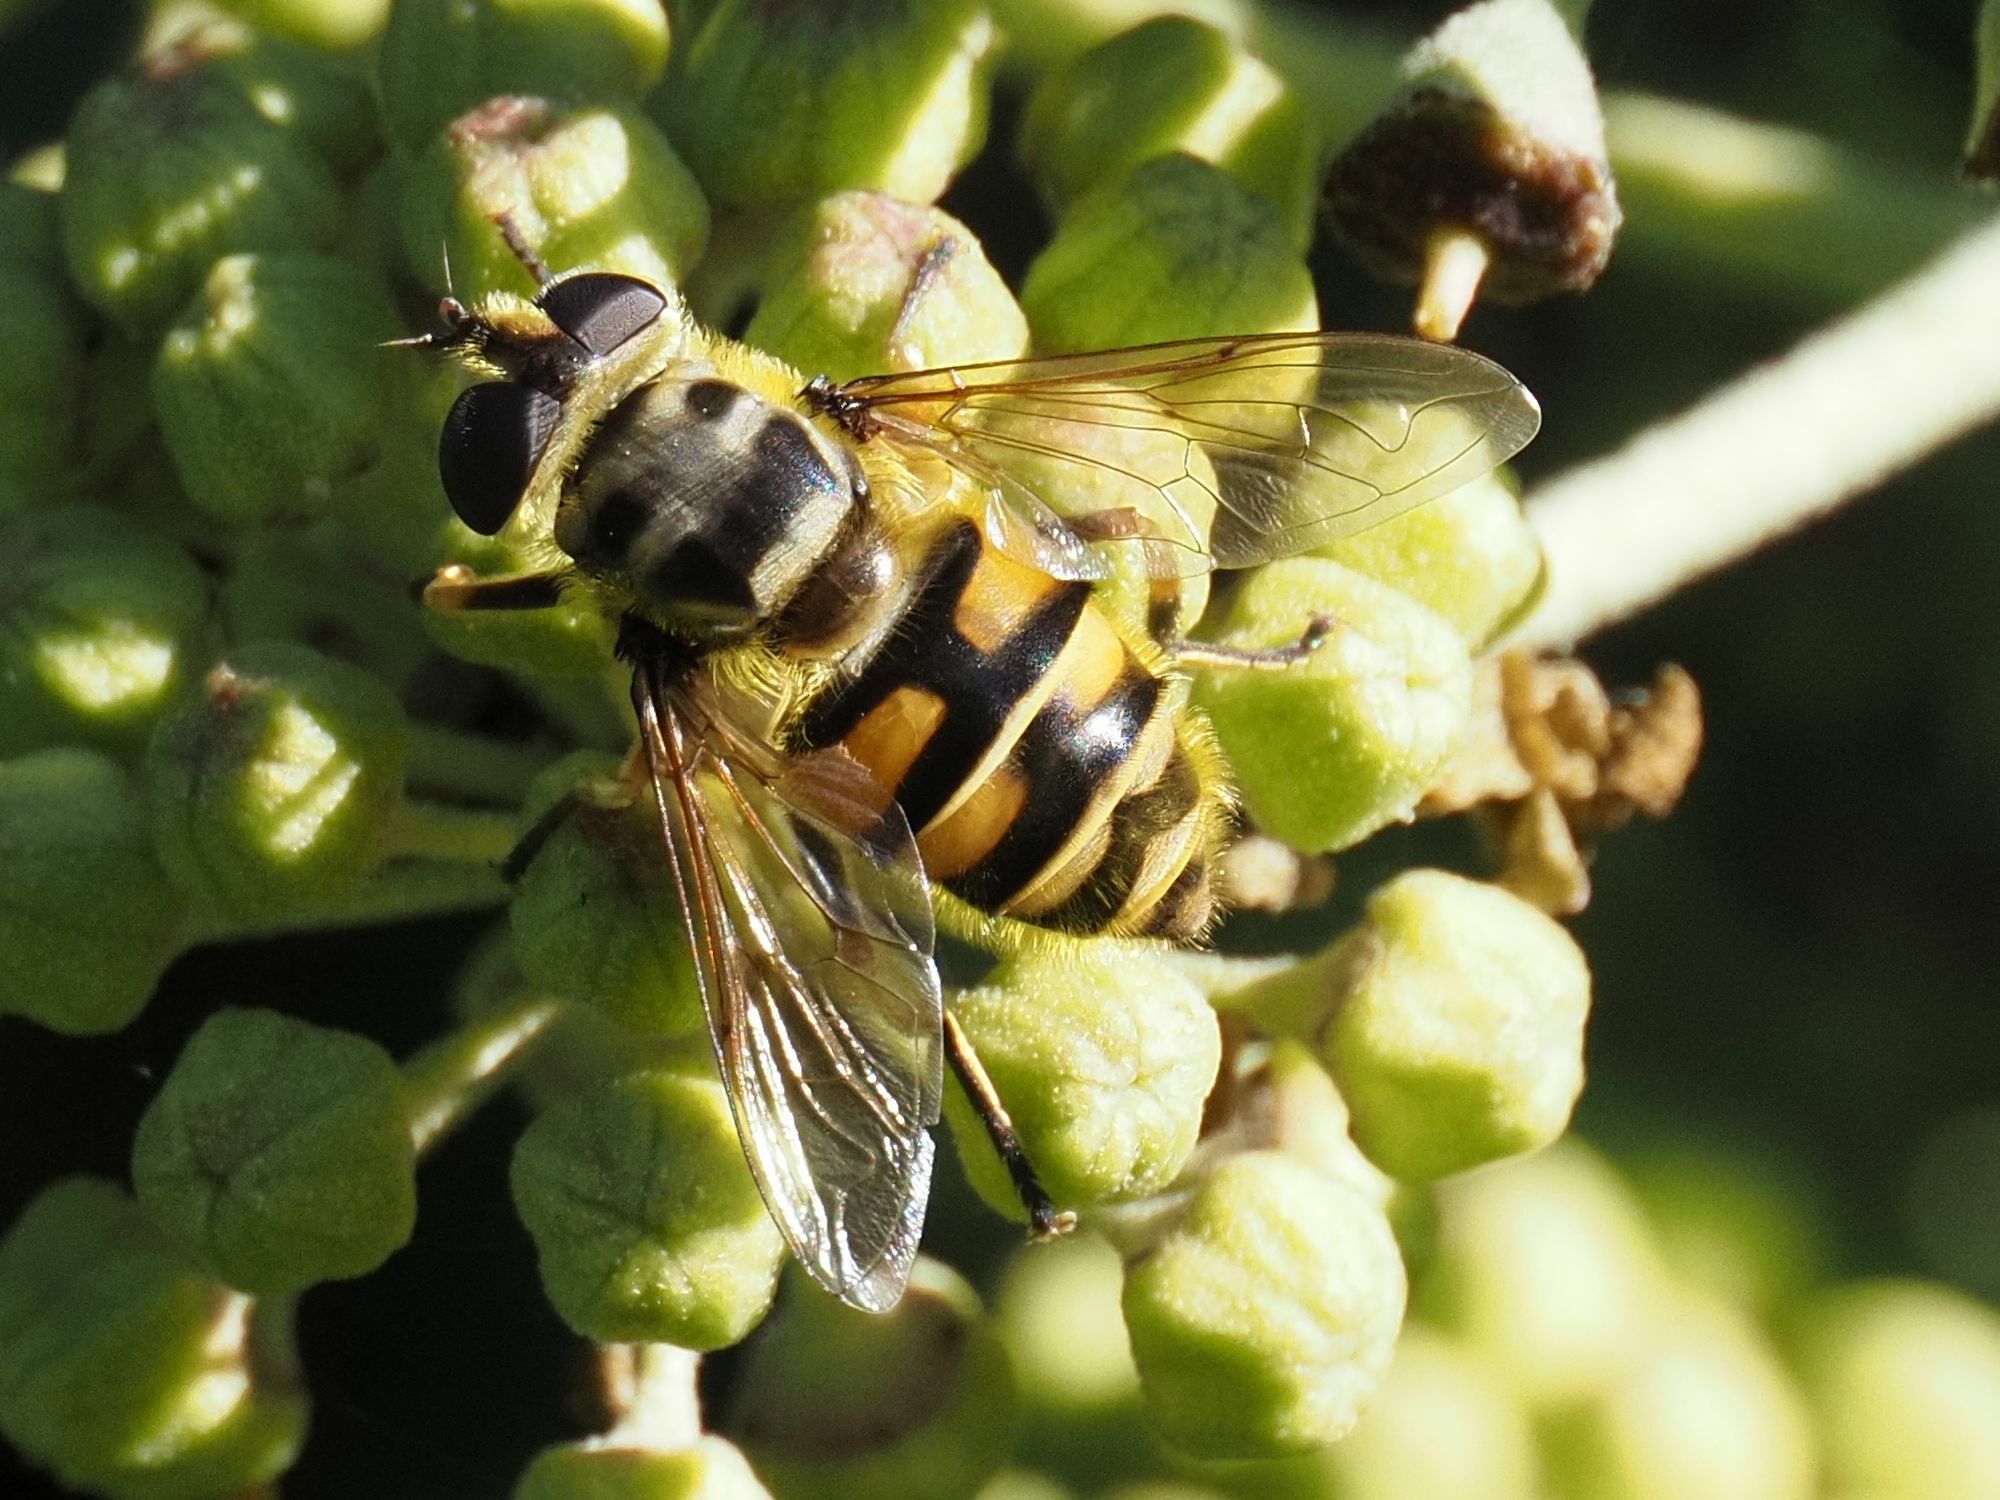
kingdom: Animalia
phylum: Arthropoda
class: Insecta
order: Diptera
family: Syrphidae
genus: Myathropa
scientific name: Myathropa florea
